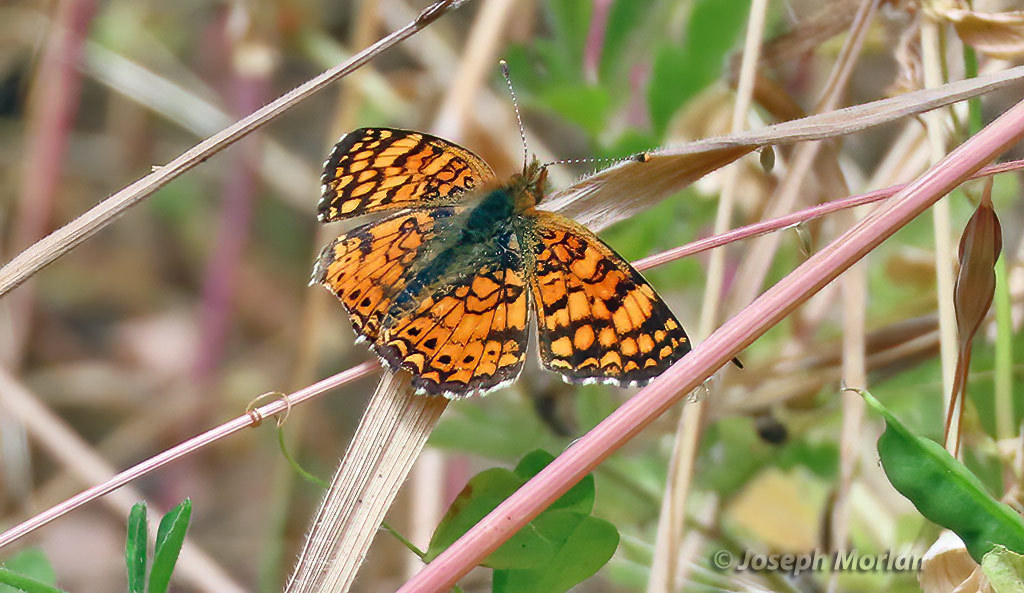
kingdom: Animalia
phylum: Arthropoda
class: Insecta
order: Lepidoptera
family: Nymphalidae
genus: Eresia
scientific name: Eresia aveyrona
